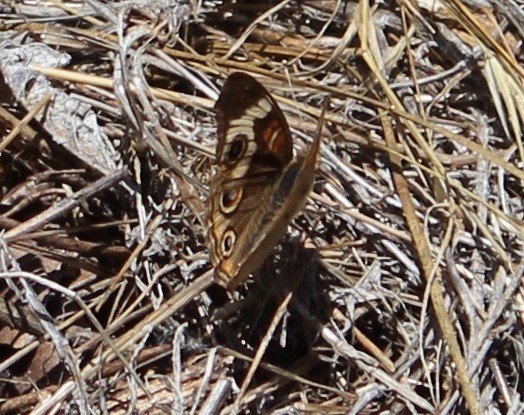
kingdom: Animalia
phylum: Arthropoda
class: Insecta
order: Lepidoptera
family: Nymphalidae
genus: Junonia
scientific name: Junonia grisea
